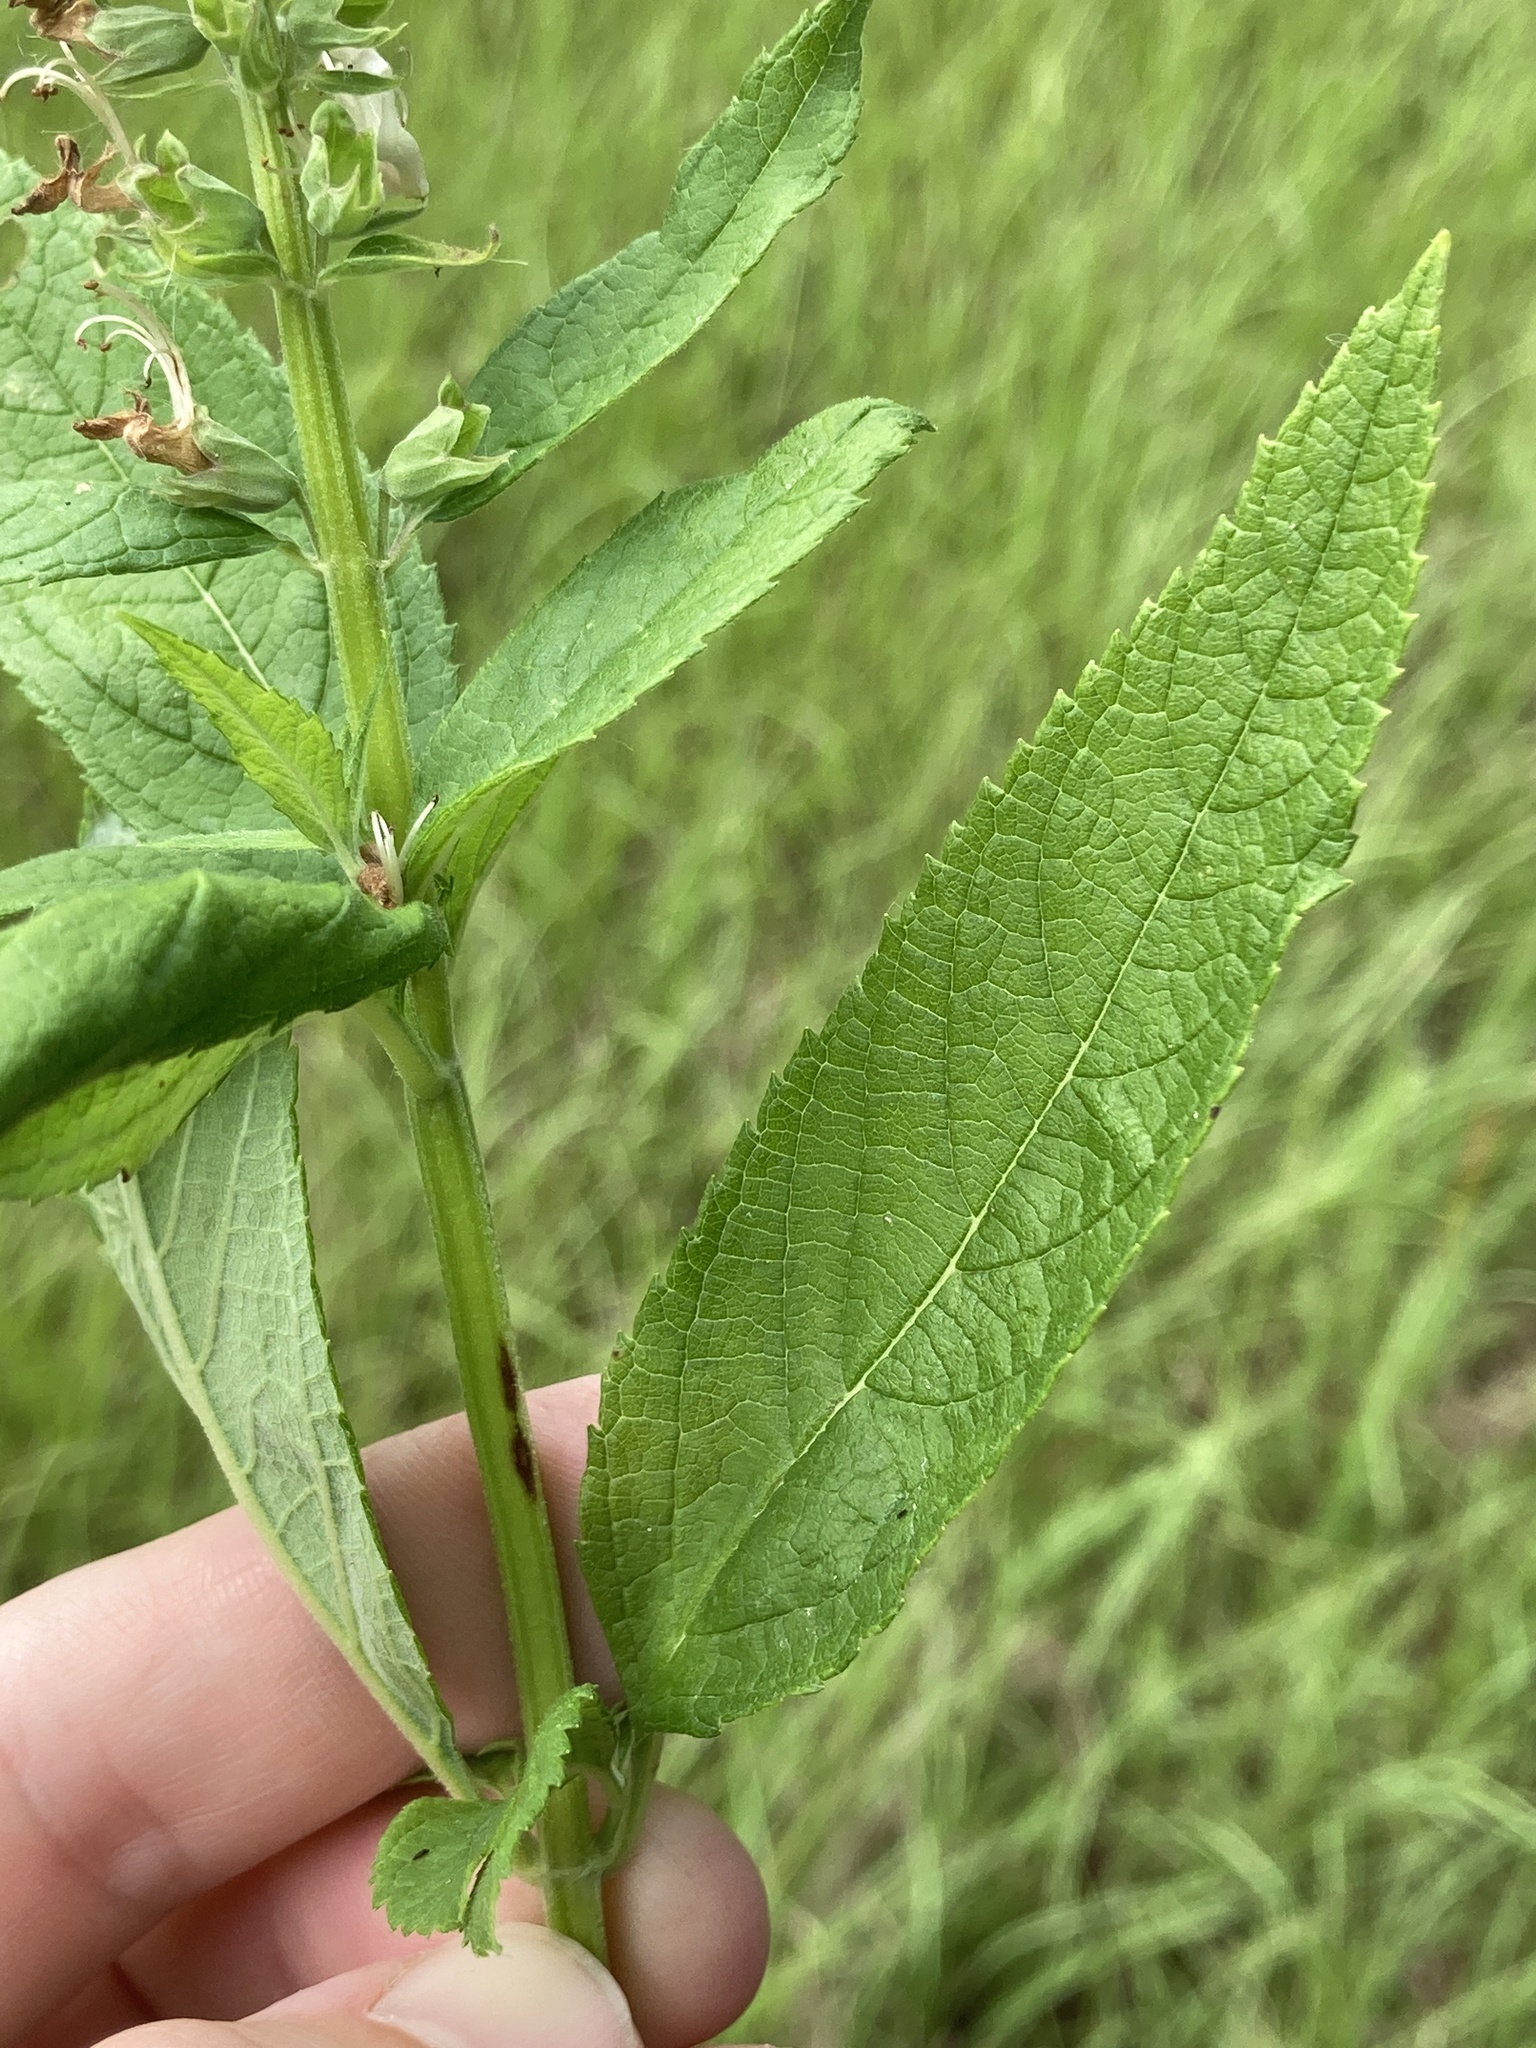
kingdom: Plantae
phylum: Tracheophyta
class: Magnoliopsida
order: Lamiales
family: Lamiaceae
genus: Teucrium
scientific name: Teucrium canadense
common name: American germander
